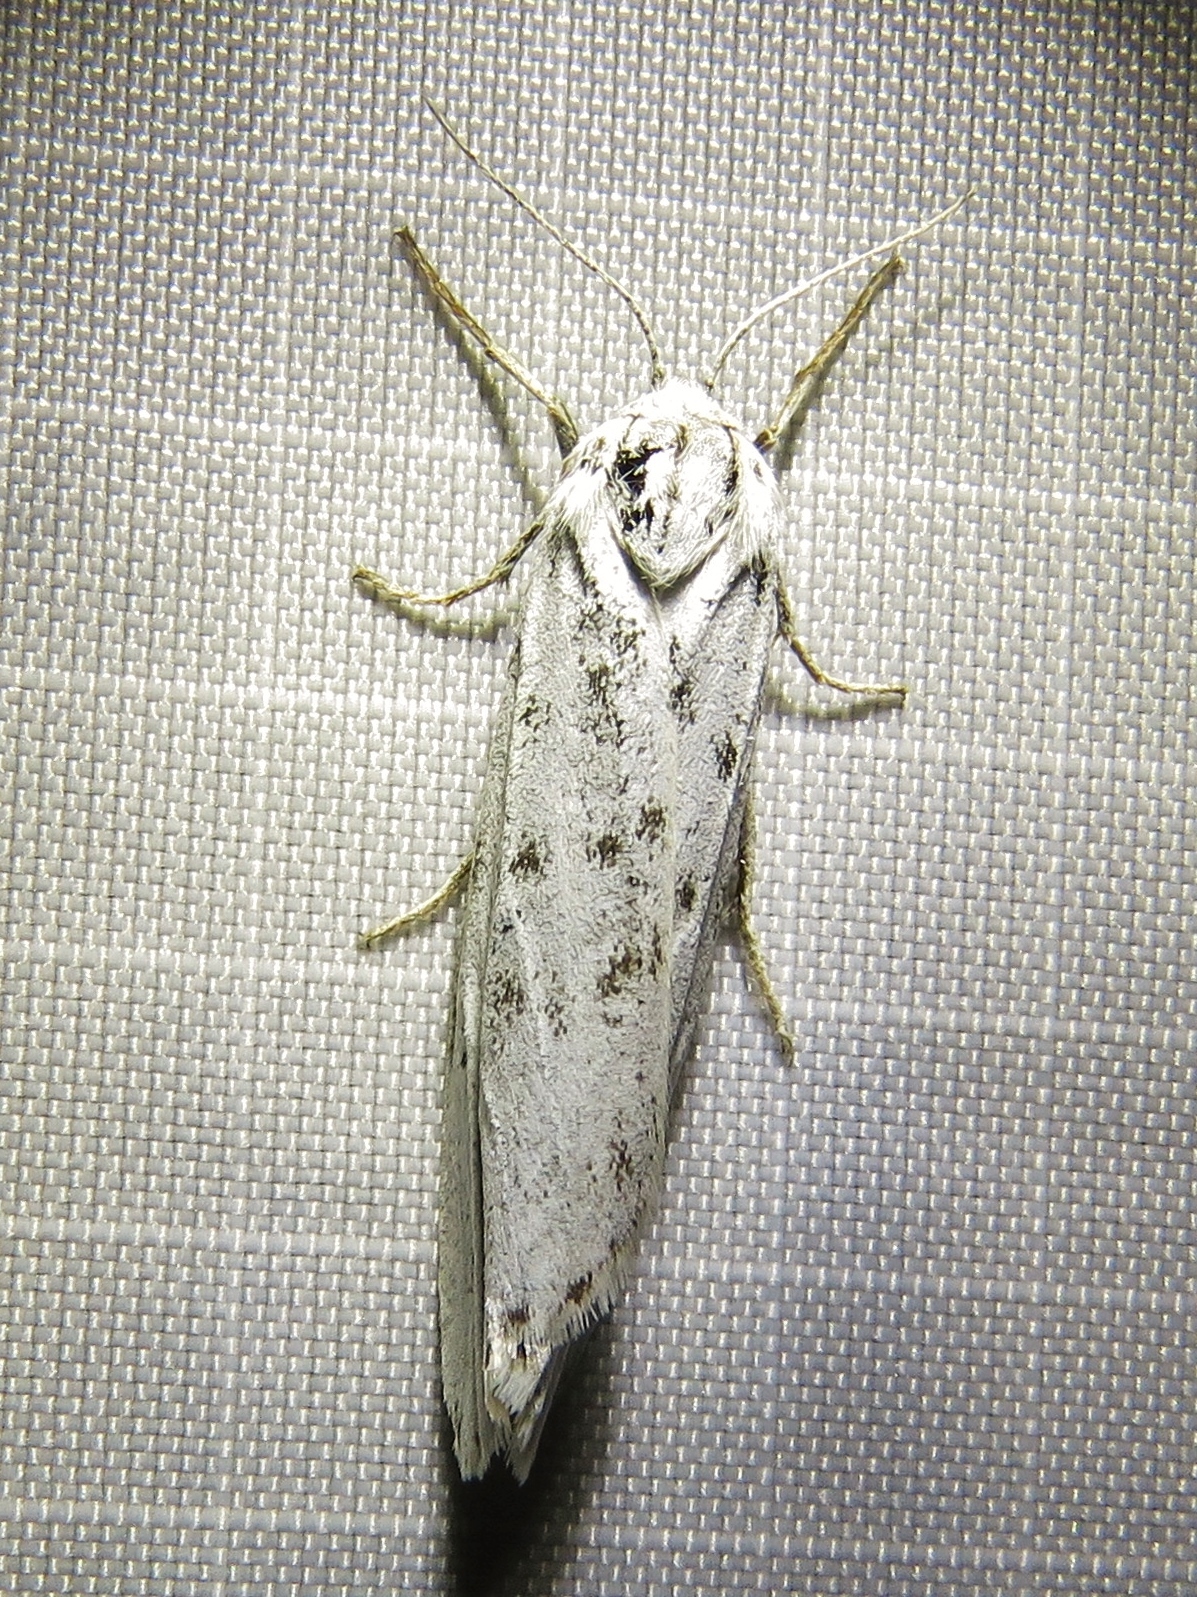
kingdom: Animalia
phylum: Arthropoda
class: Insecta
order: Lepidoptera
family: Erebidae
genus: Coscinia
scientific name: Coscinia cribraria
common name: Speckled footman
